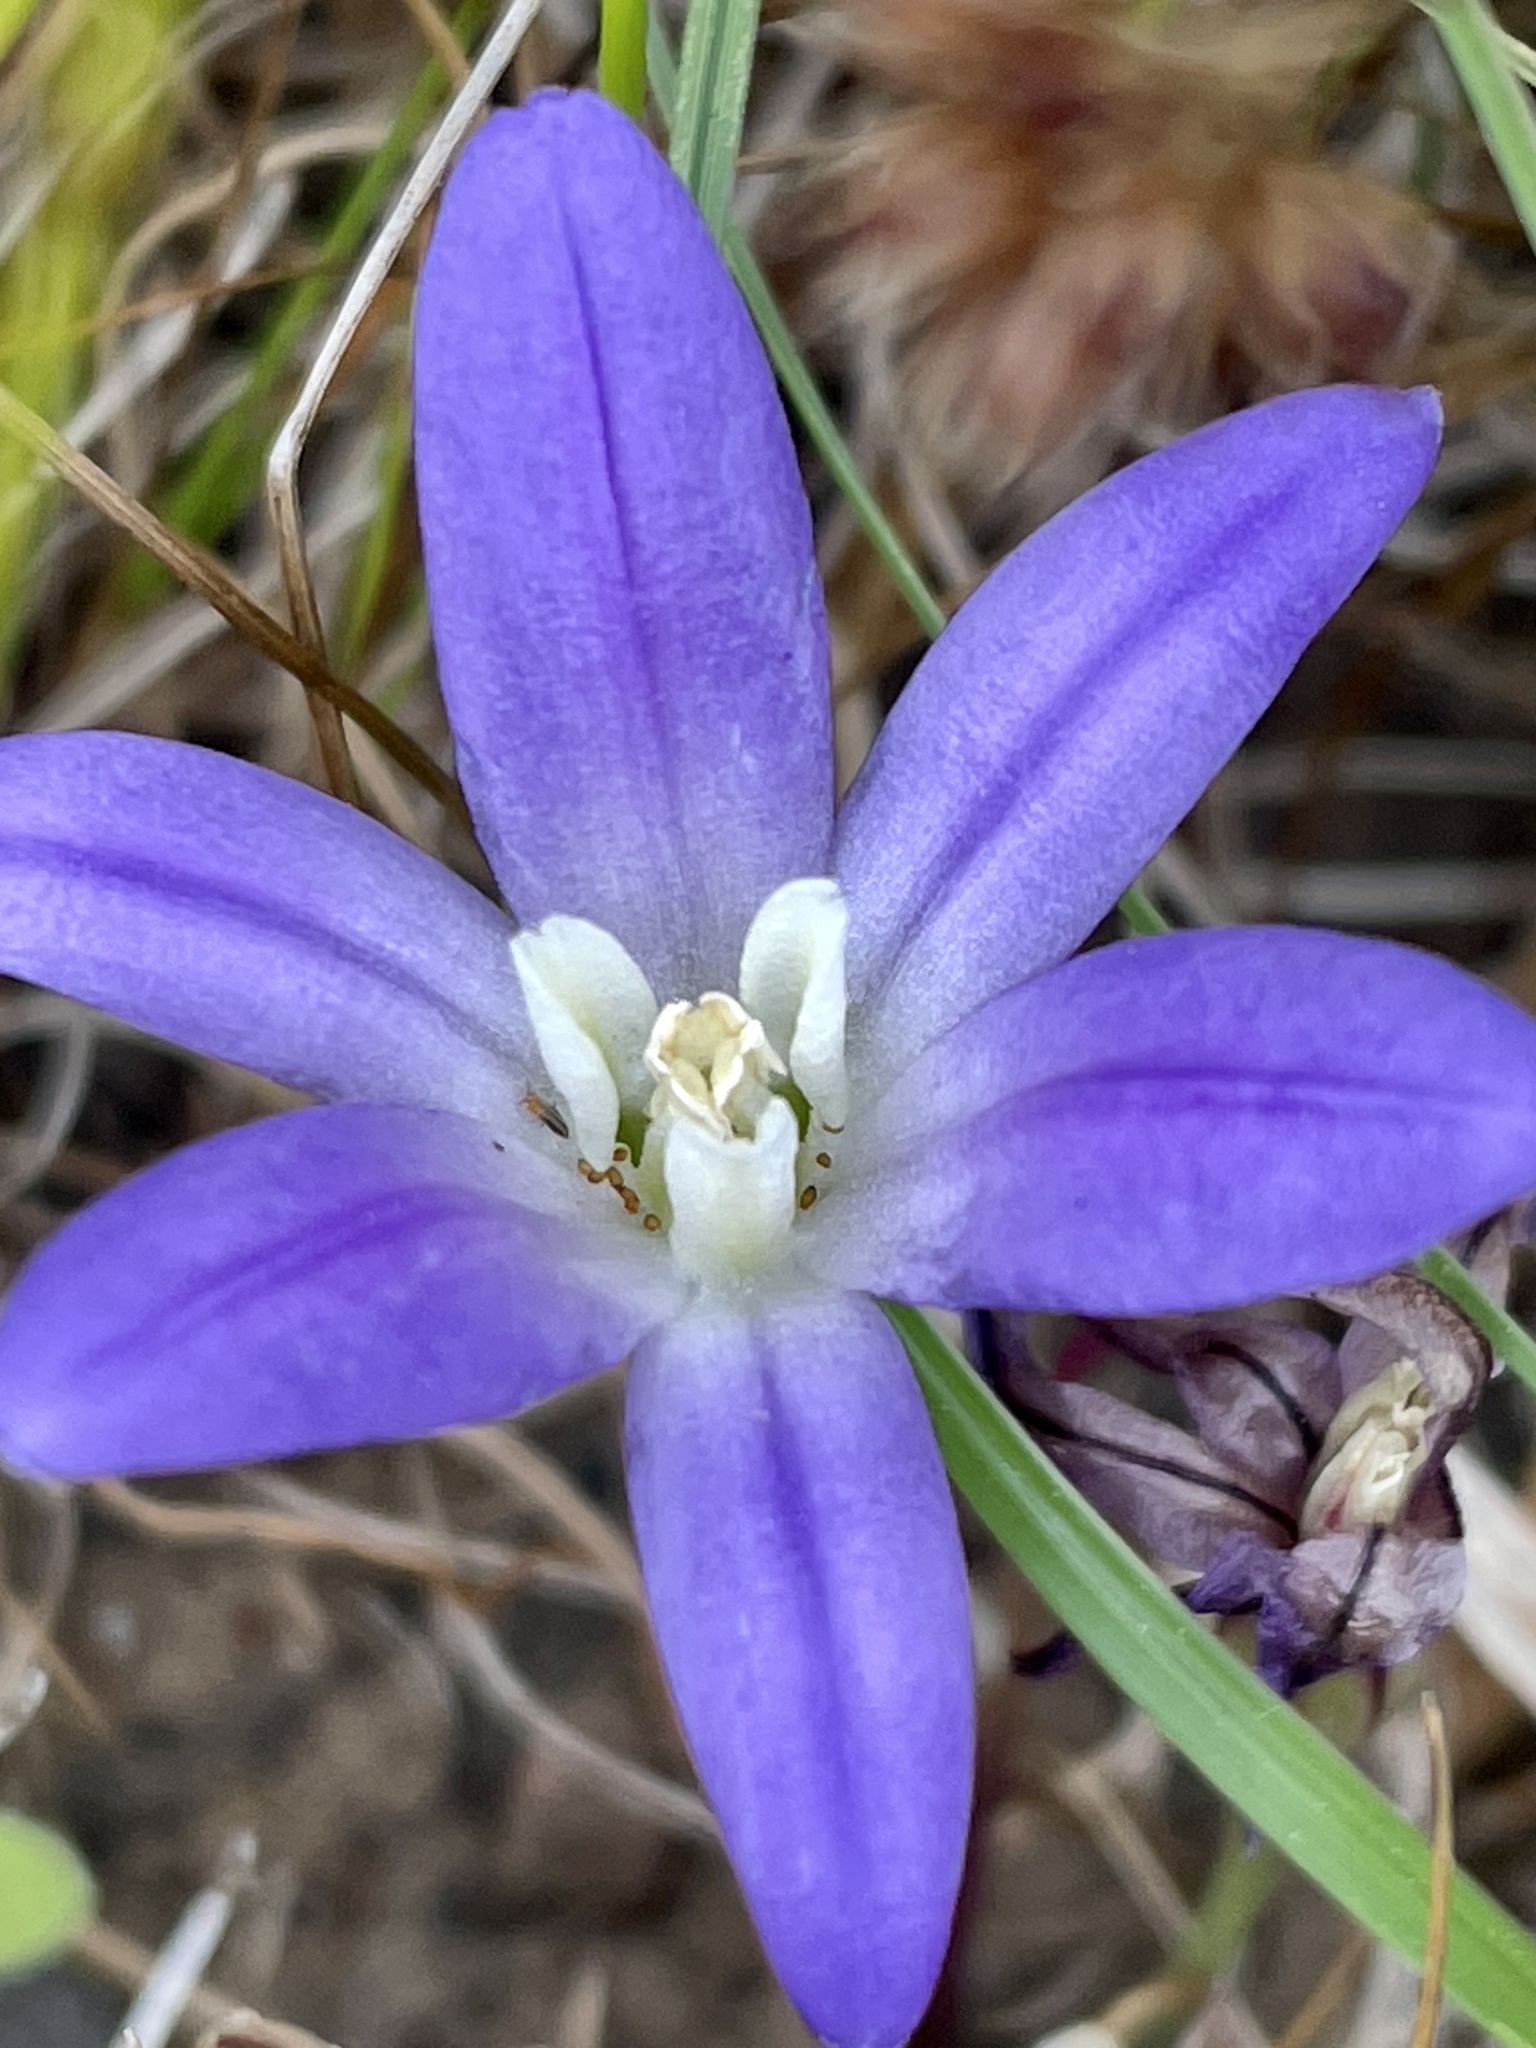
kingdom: Plantae
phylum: Tracheophyta
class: Liliopsida
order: Asparagales
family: Asparagaceae
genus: Brodiaea
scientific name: Brodiaea terrestris
